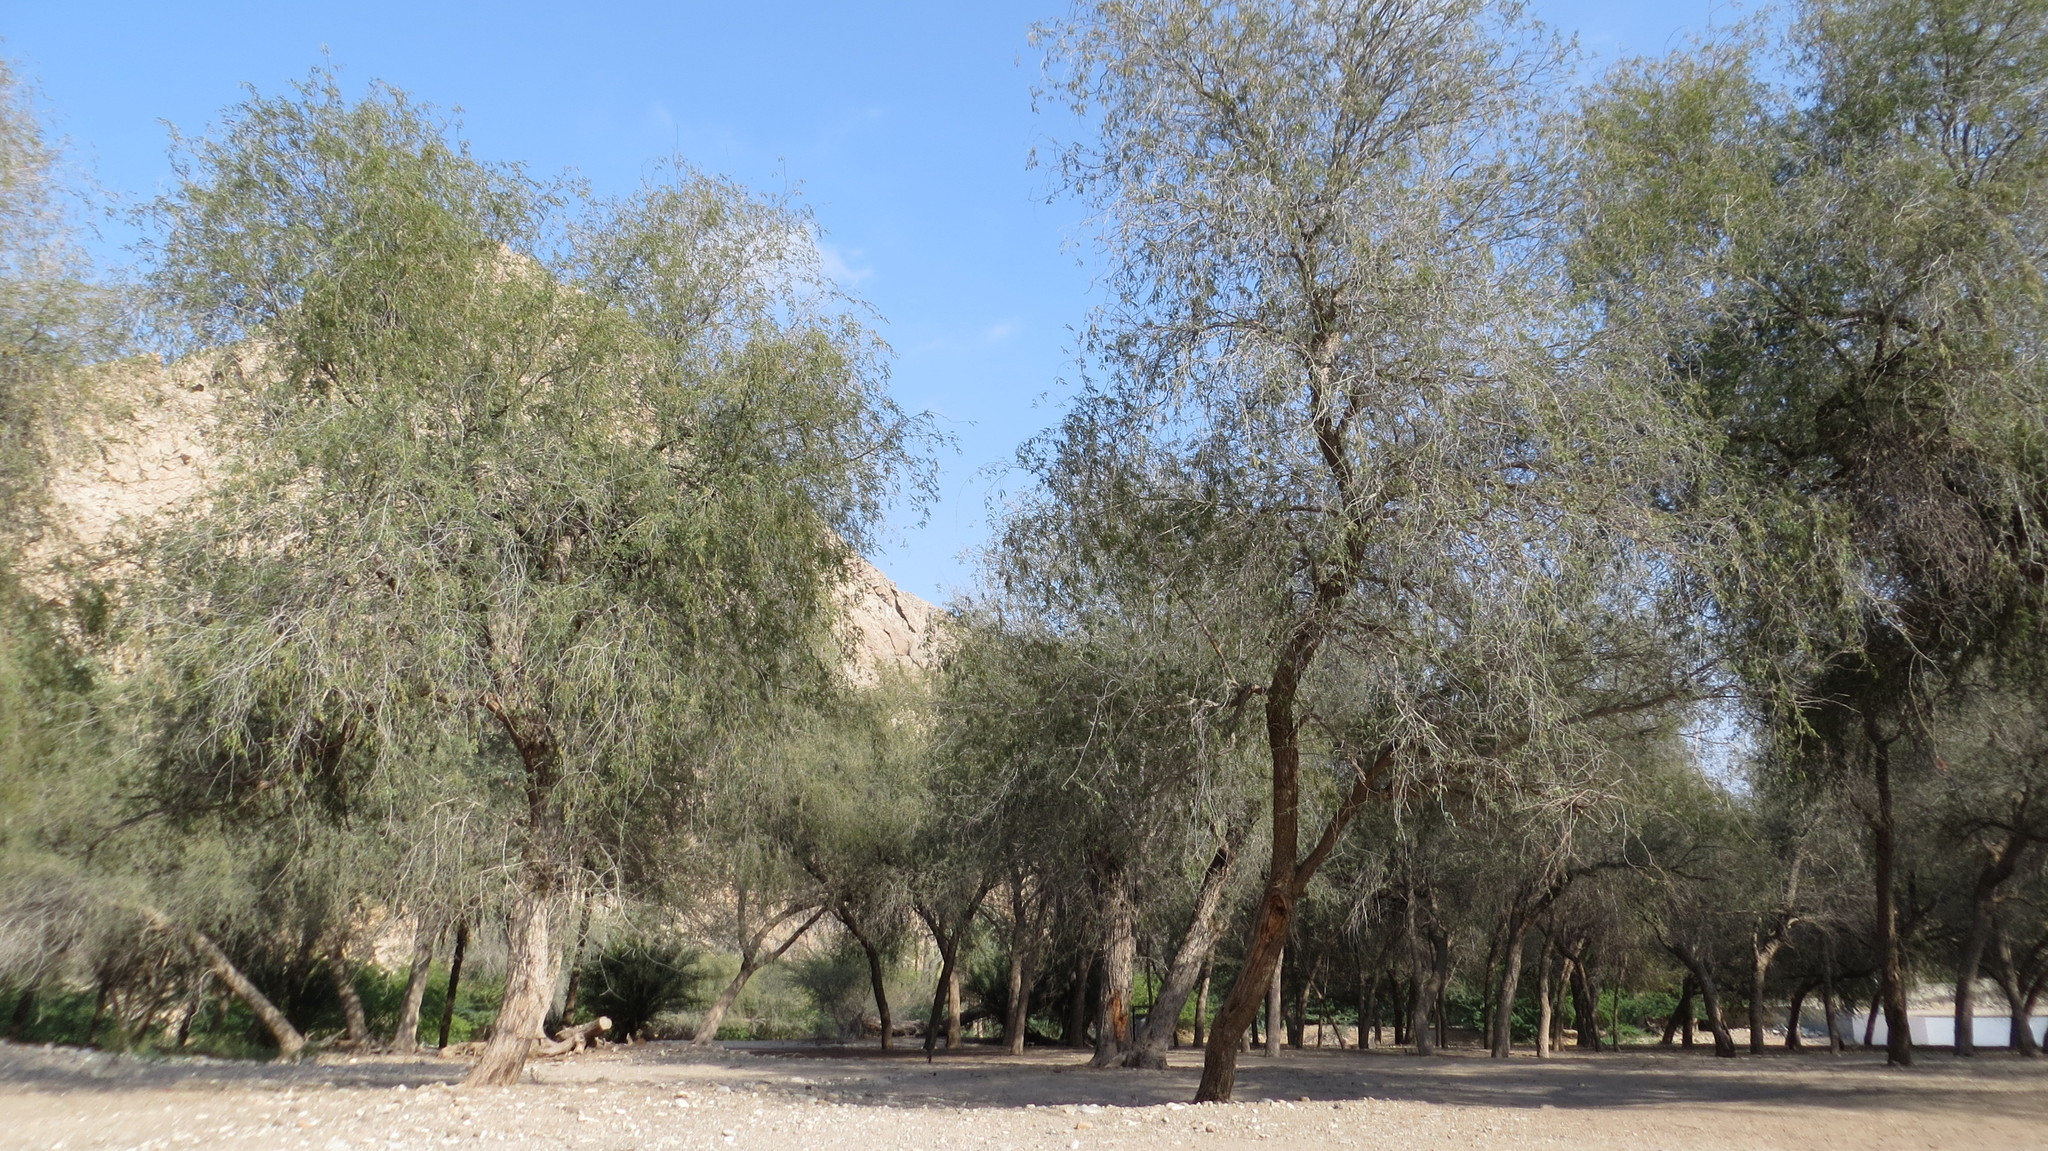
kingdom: Plantae
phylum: Tracheophyta
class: Magnoliopsida
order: Fabales
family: Fabaceae
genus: Prosopis
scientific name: Prosopis cineraria
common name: Jandi
